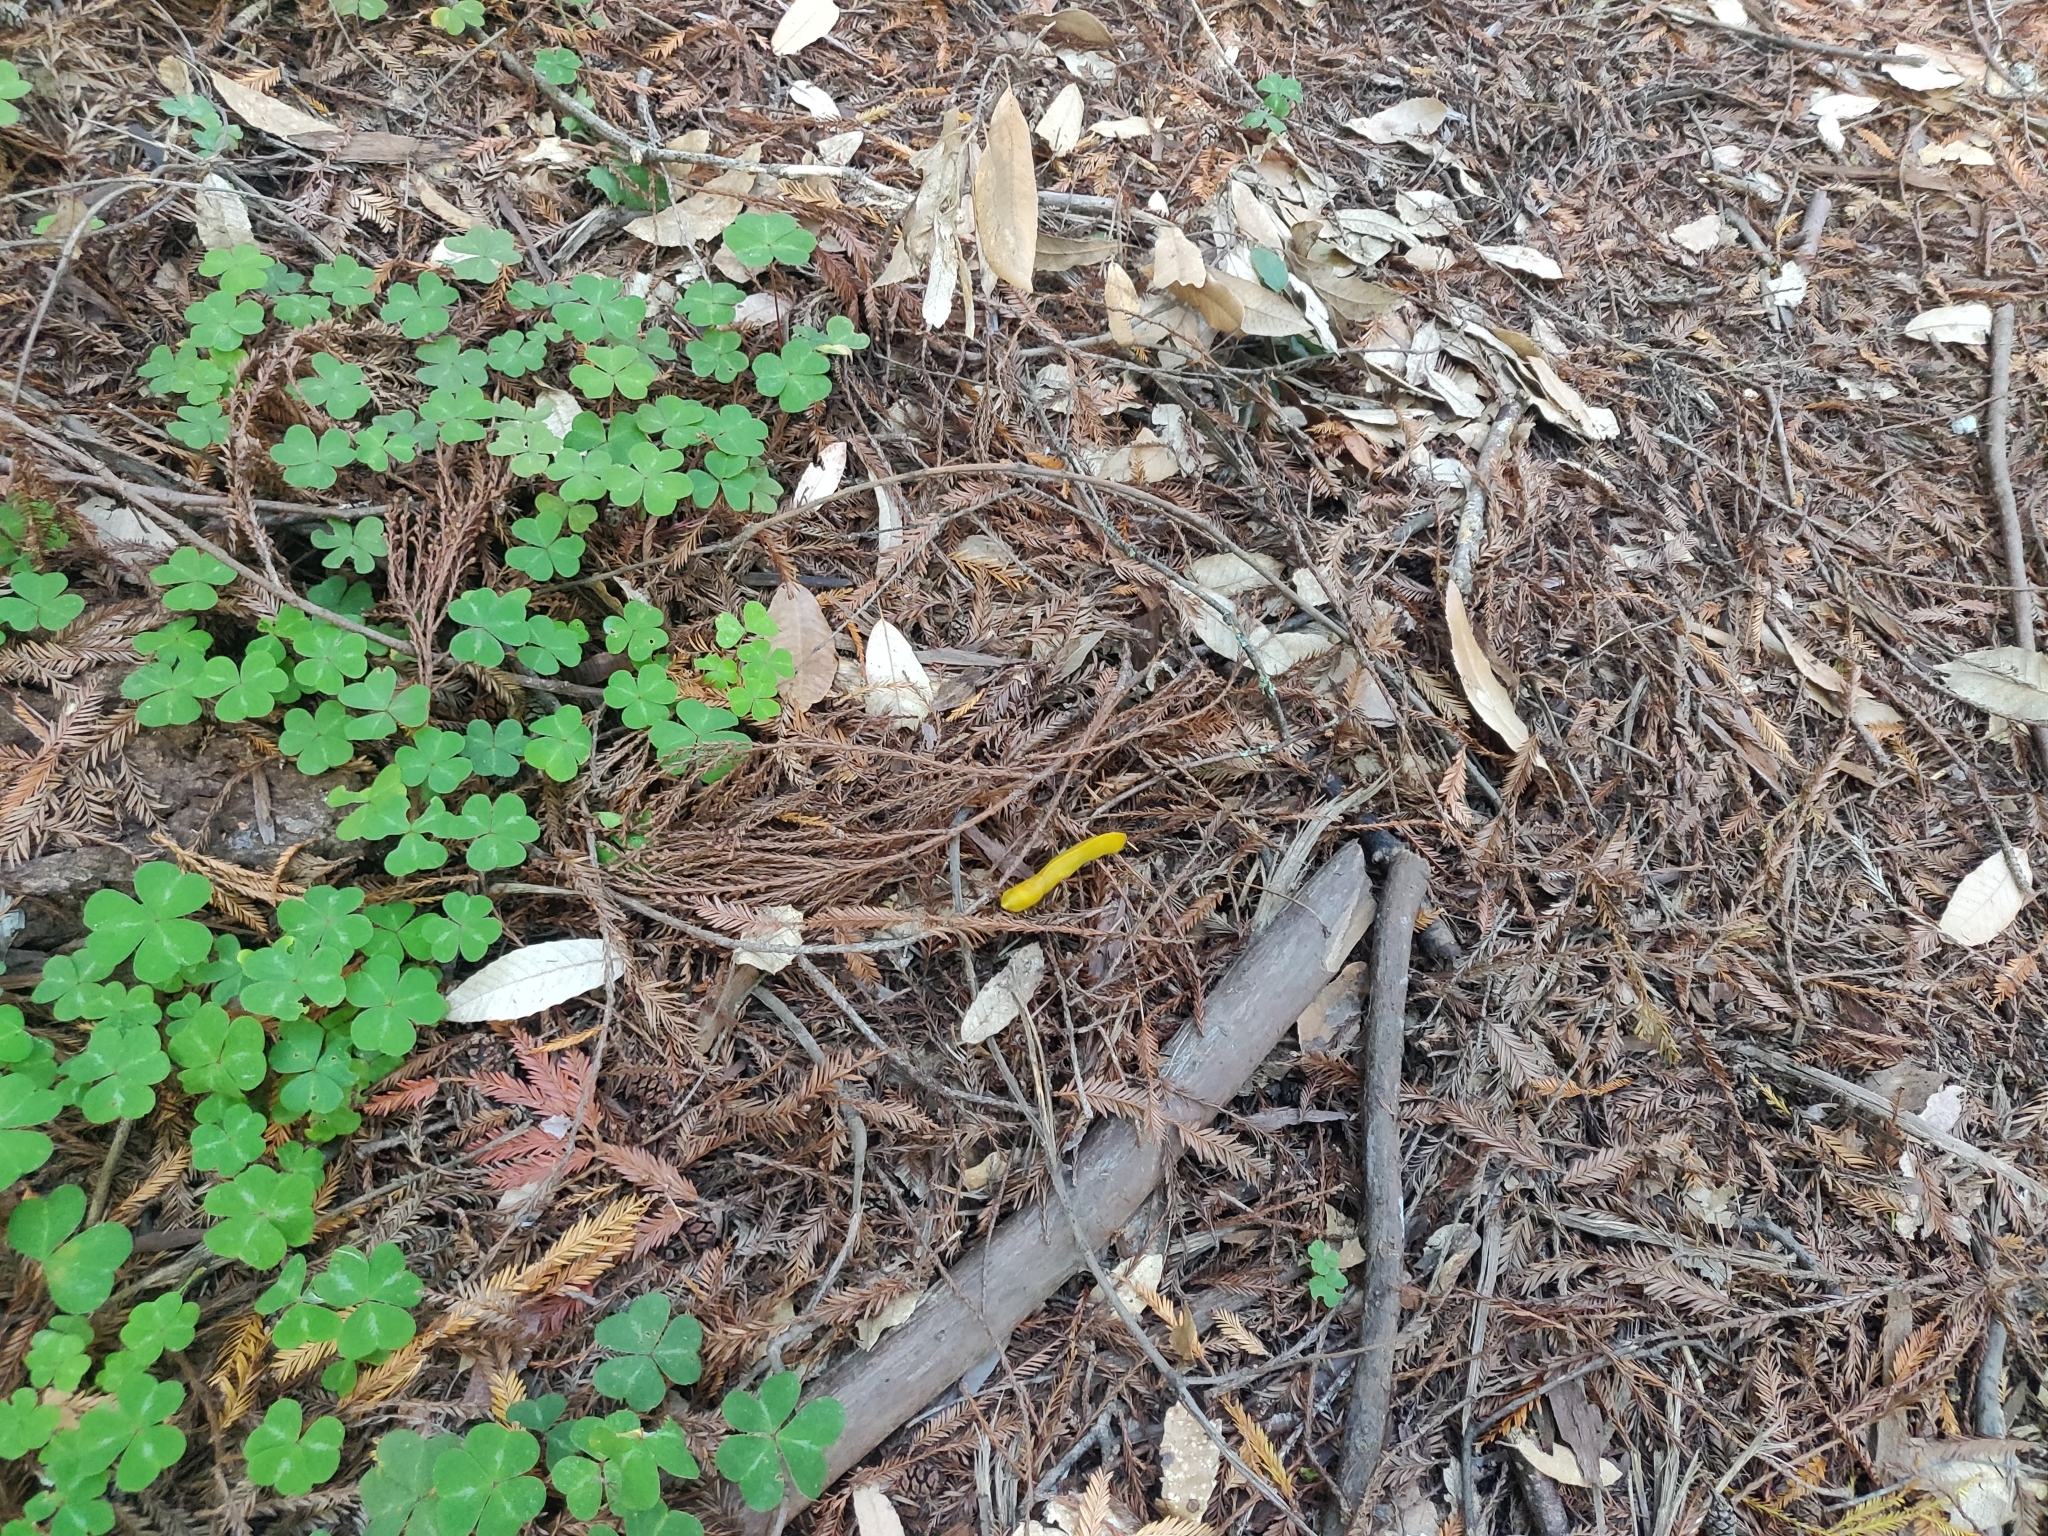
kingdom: Animalia
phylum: Mollusca
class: Gastropoda
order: Stylommatophora
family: Ariolimacidae
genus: Ariolimax
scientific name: Ariolimax californicus
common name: California banana slug
